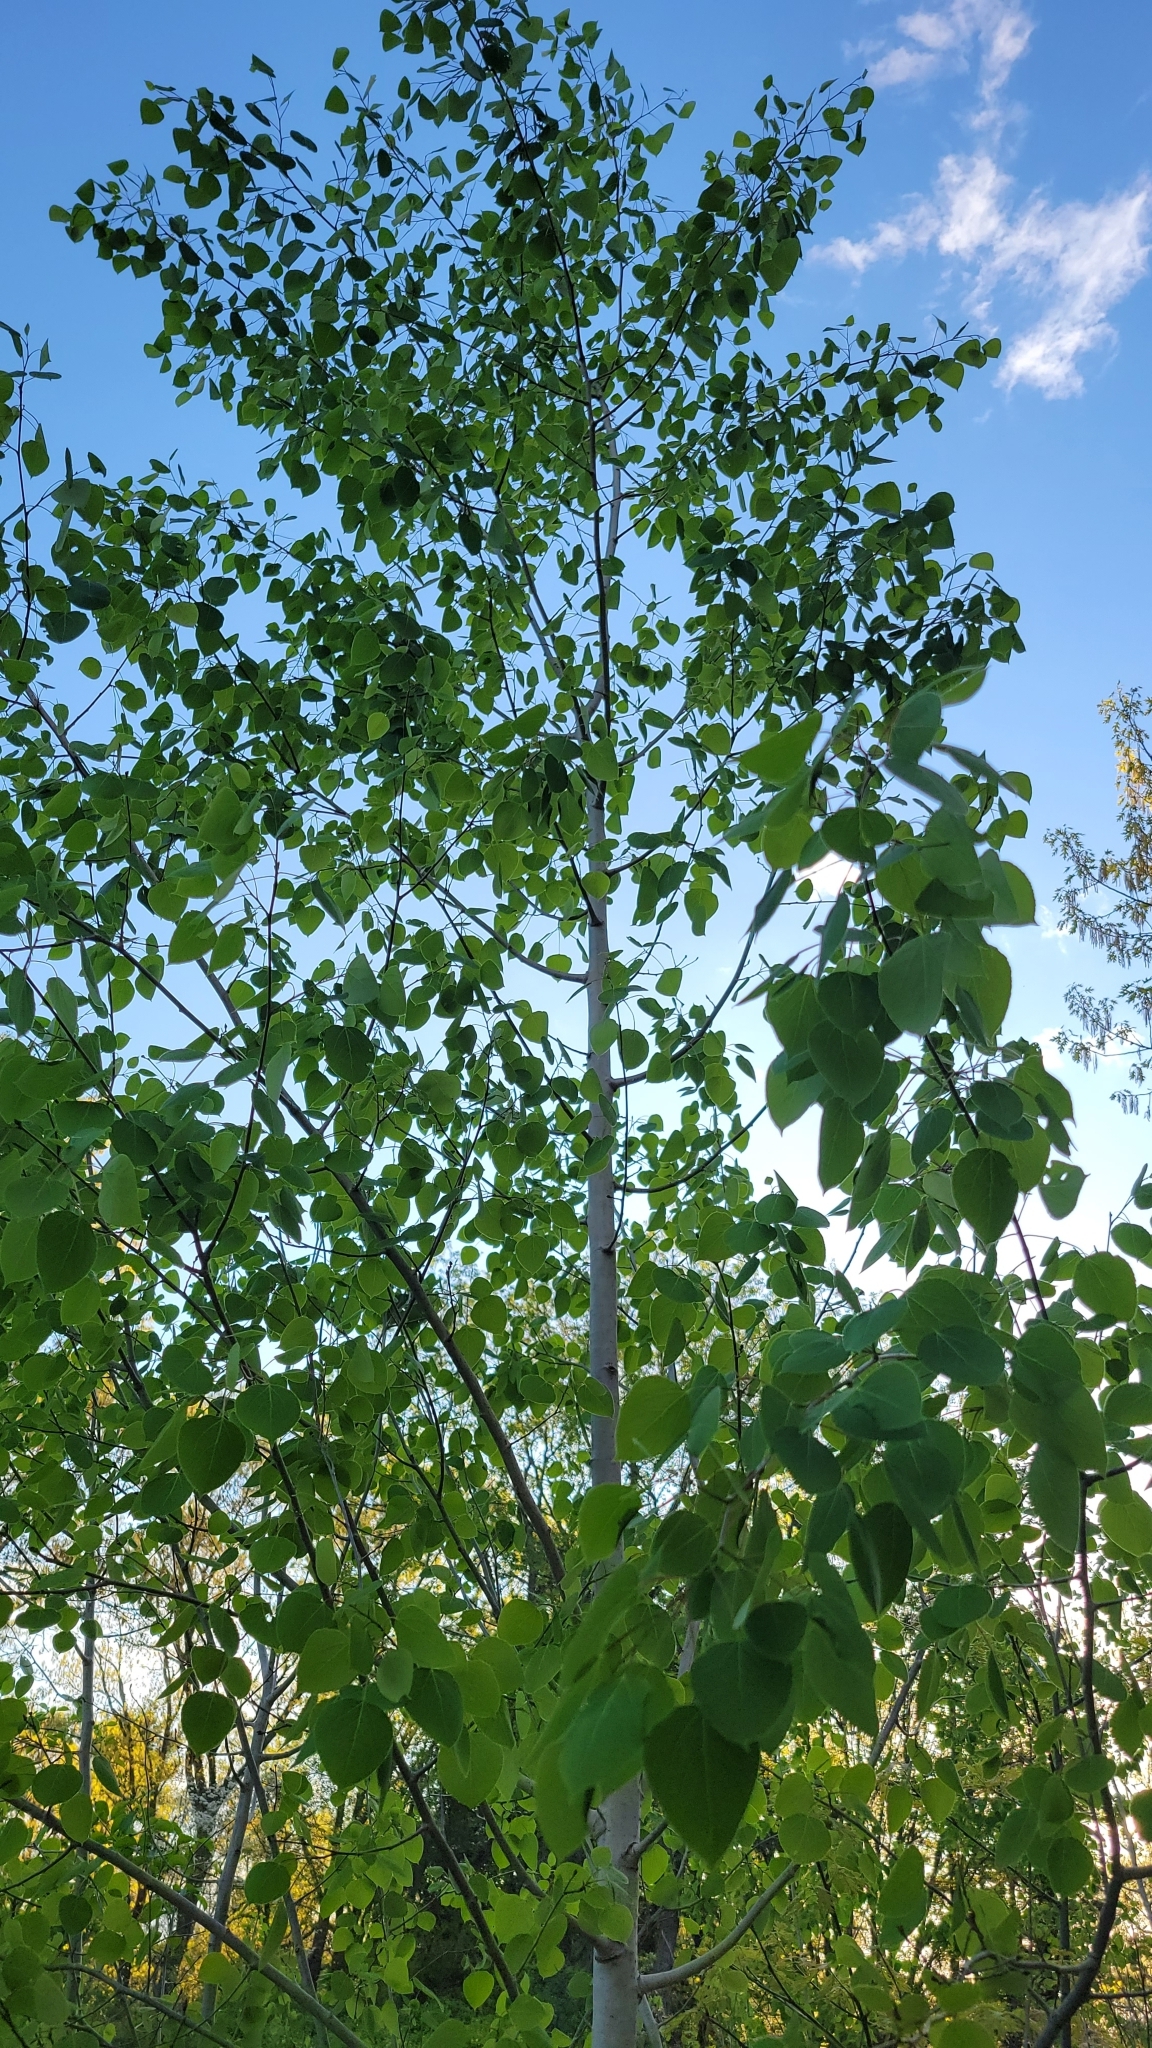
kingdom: Plantae
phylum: Tracheophyta
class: Magnoliopsida
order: Malpighiales
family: Salicaceae
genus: Populus
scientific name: Populus tremuloides
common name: Quaking aspen
